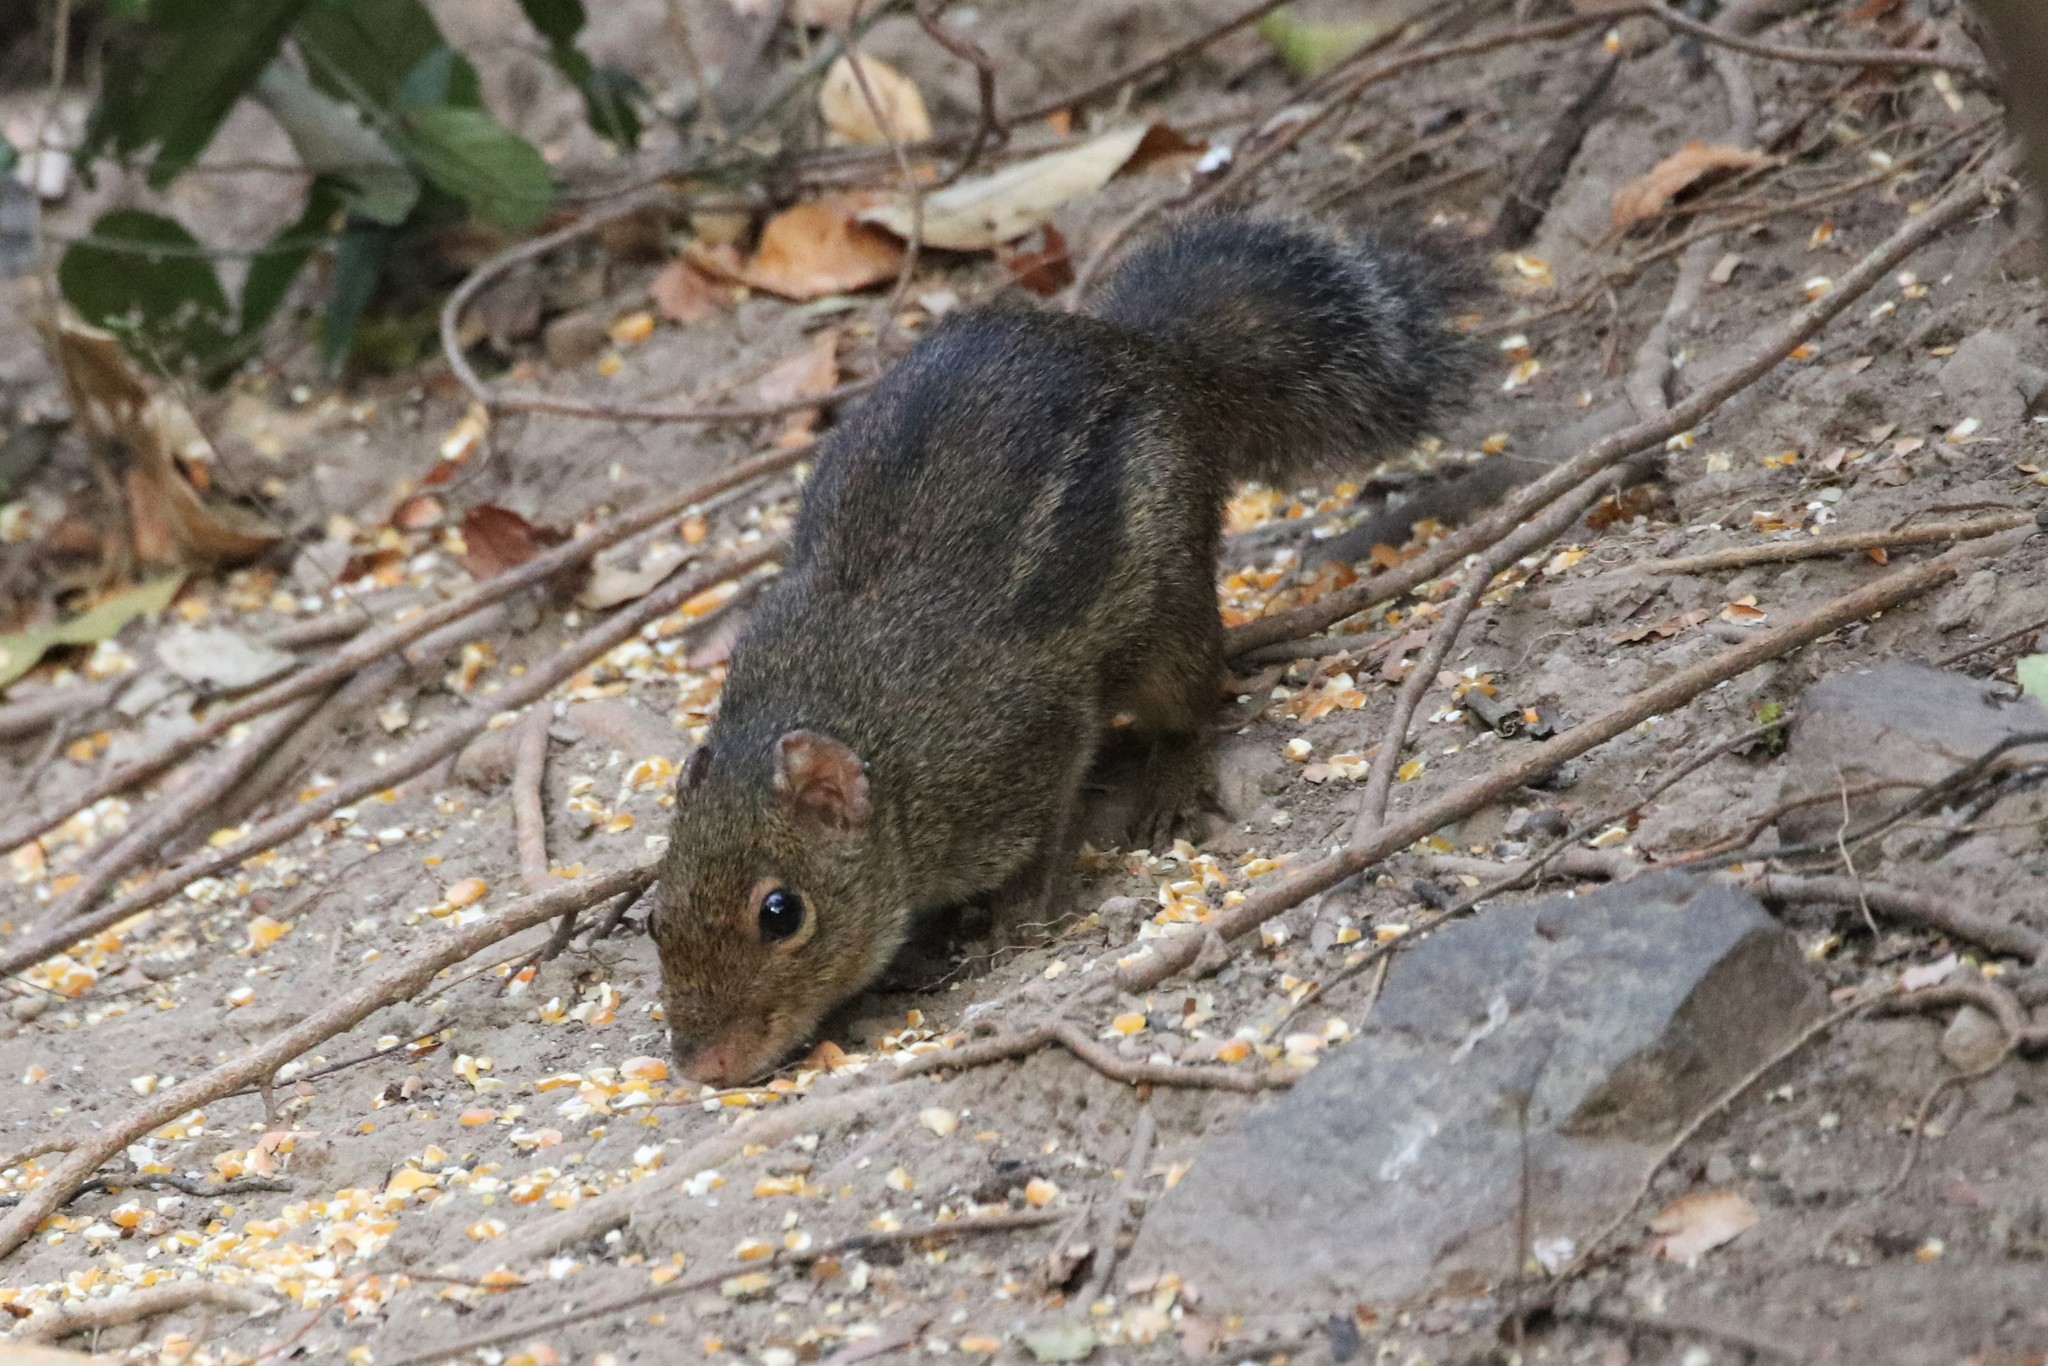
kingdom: Animalia
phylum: Chordata
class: Mammalia
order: Rodentia
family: Sciuridae
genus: Menetes
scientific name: Menetes berdmorei
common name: Indochinese ground squirrel
